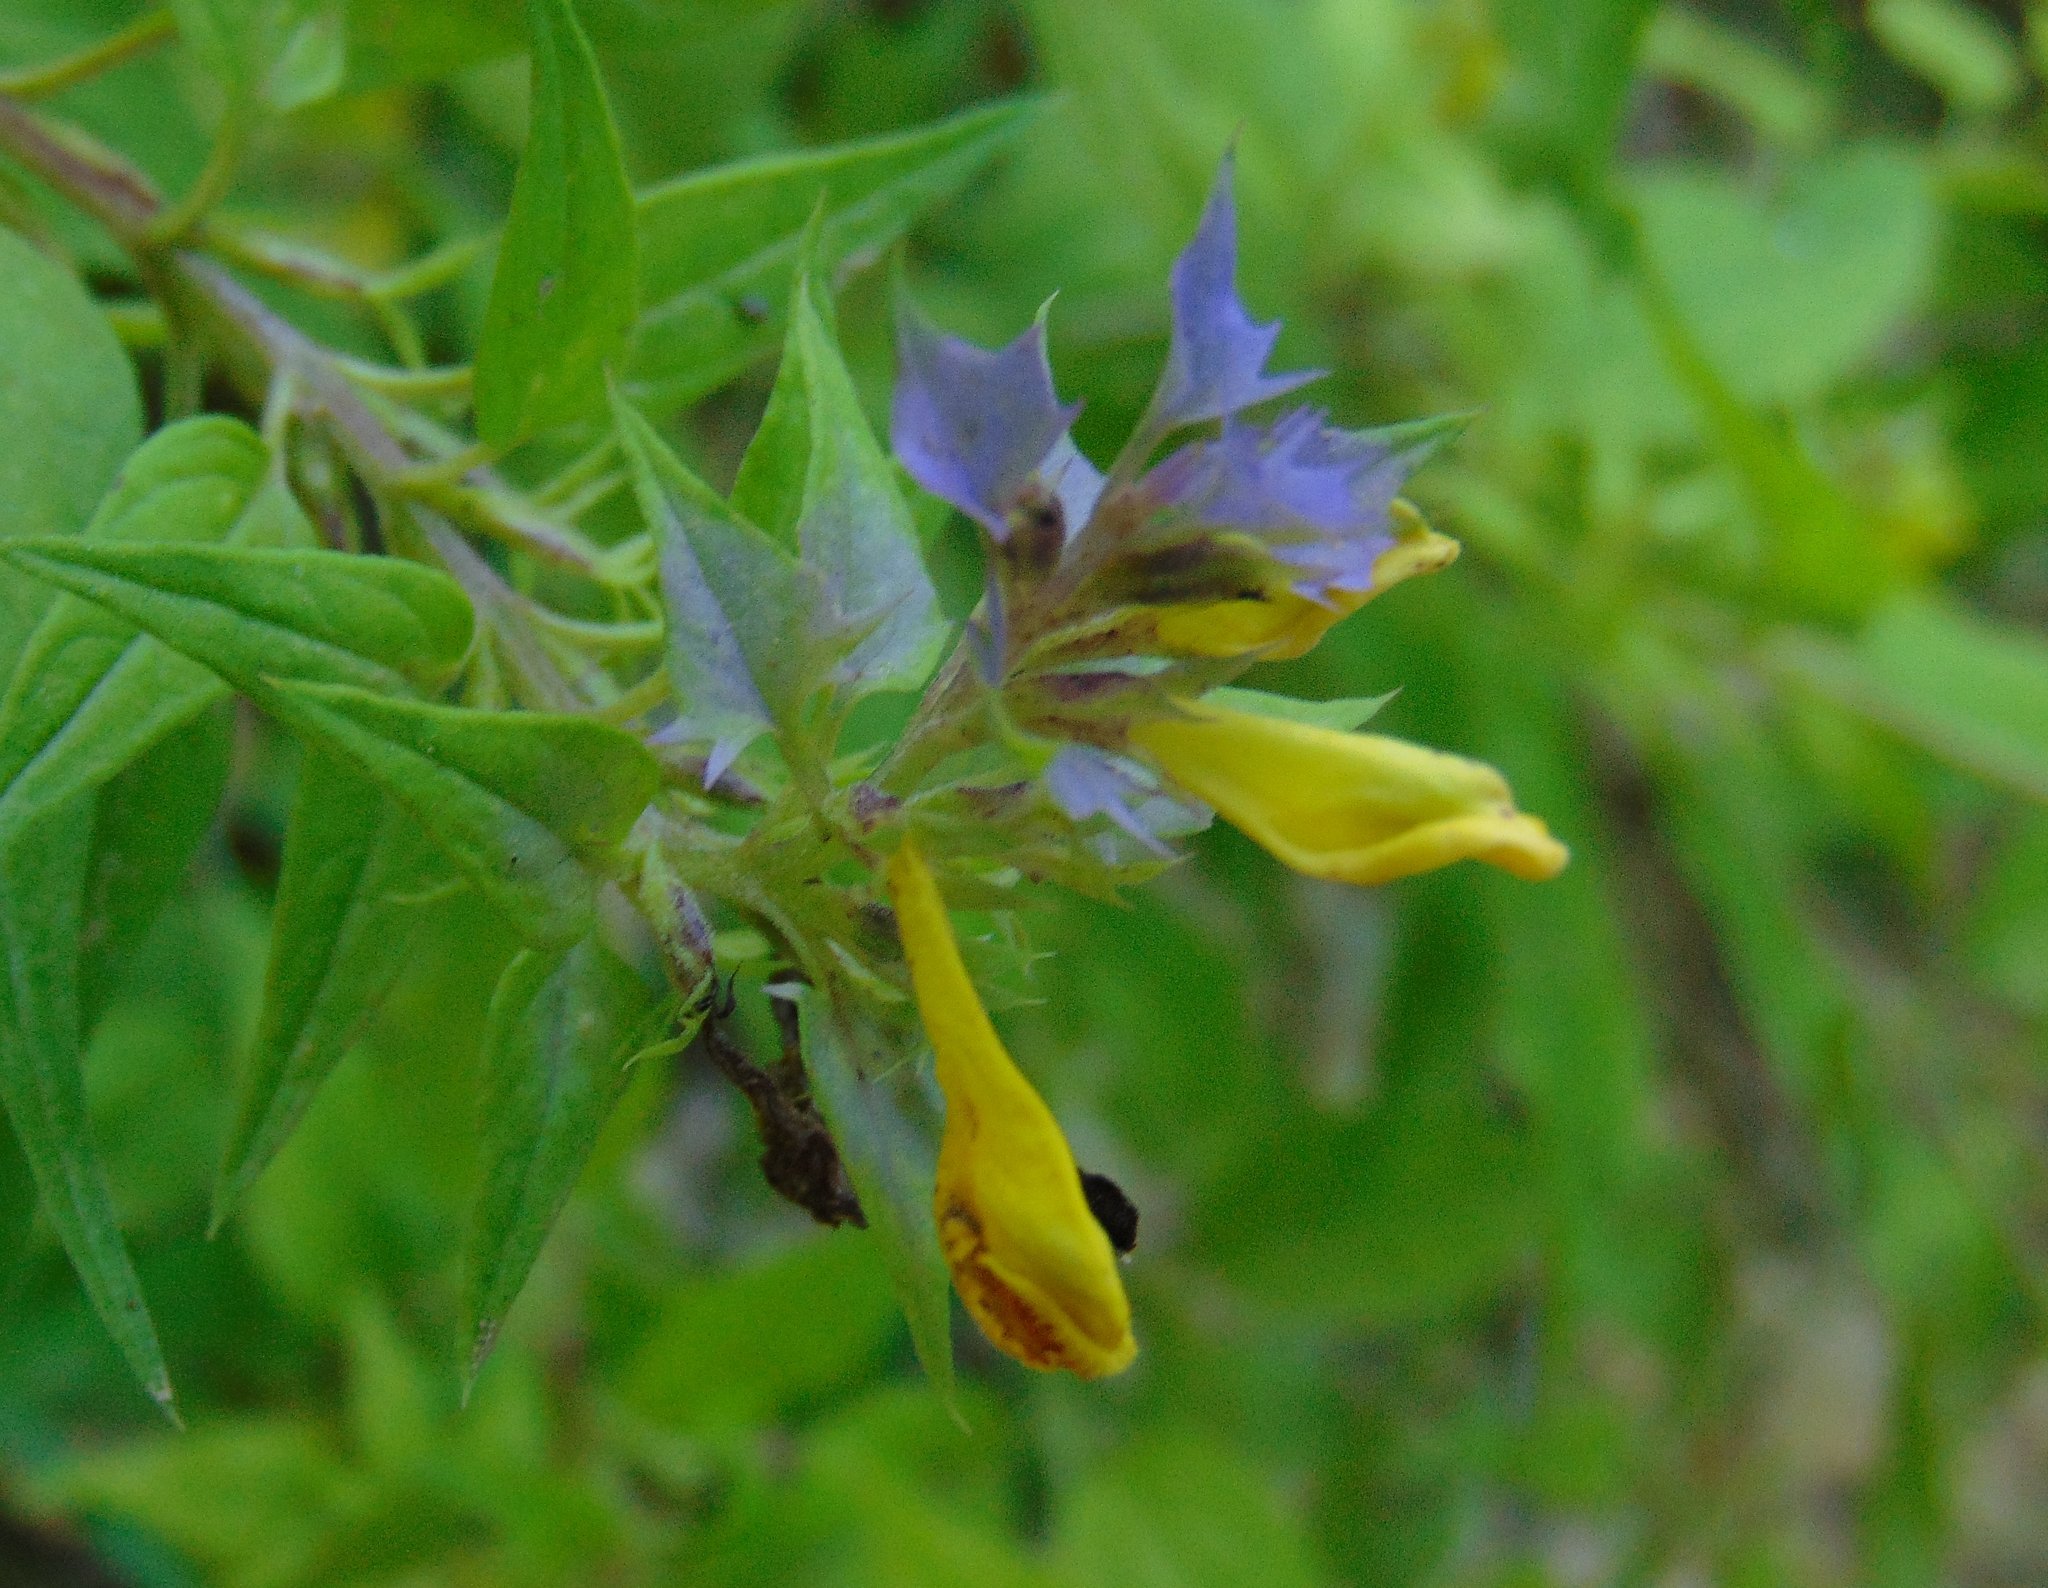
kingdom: Plantae
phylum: Tracheophyta
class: Magnoliopsida
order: Lamiales
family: Orobanchaceae
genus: Melampyrum
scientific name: Melampyrum nemorosum
